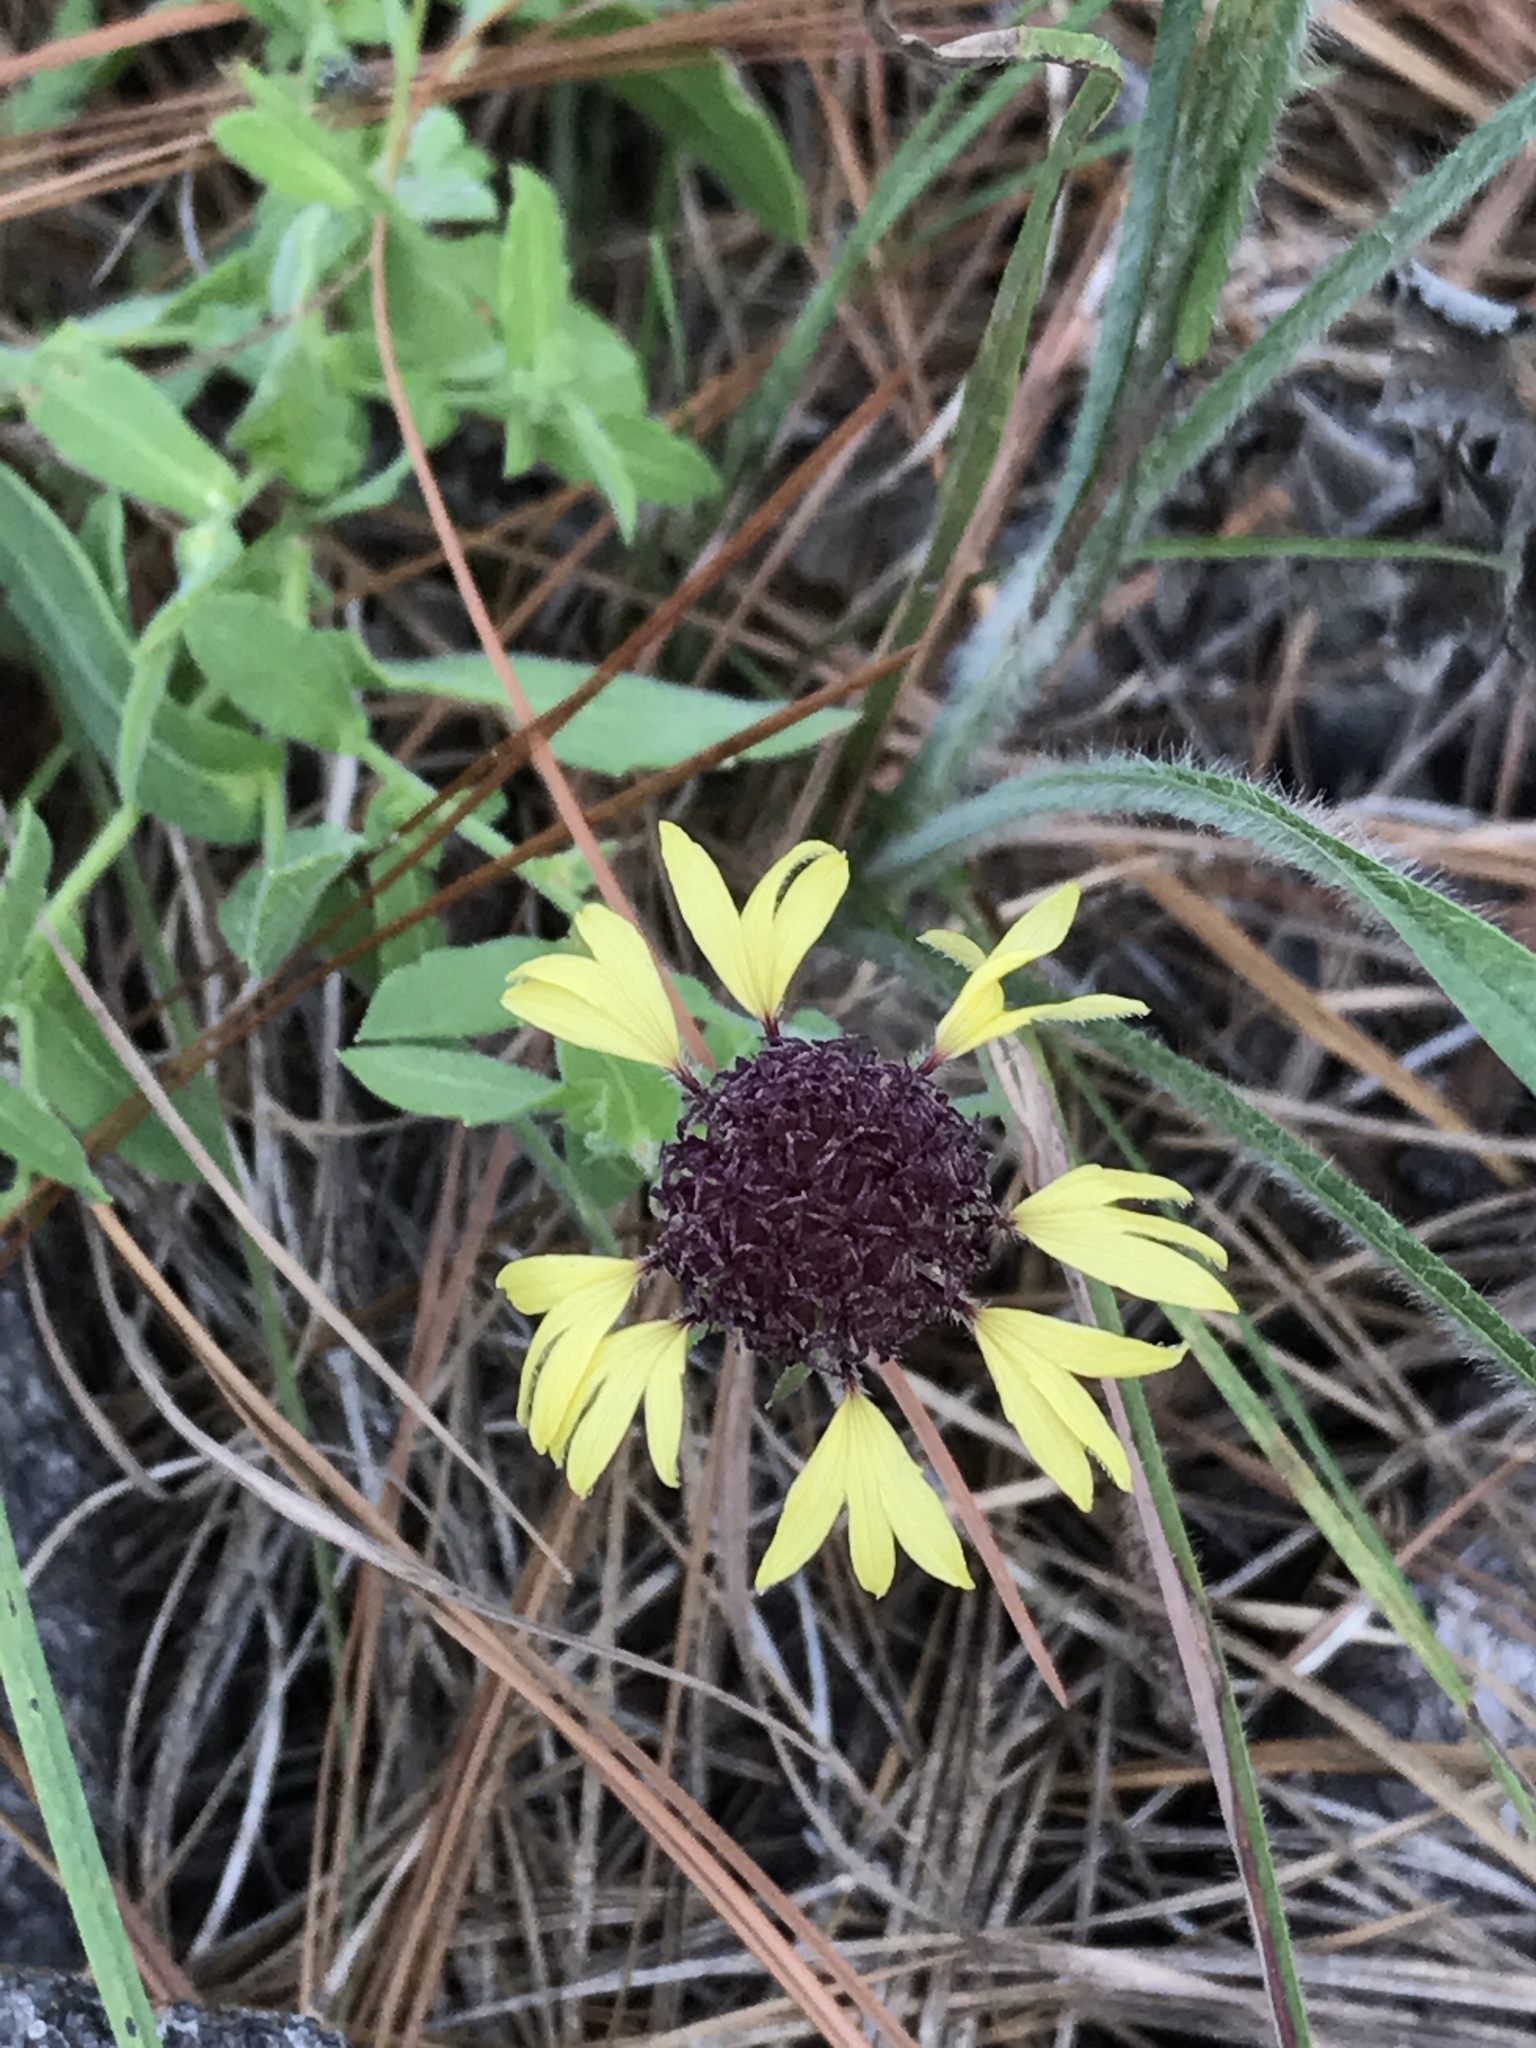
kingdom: Plantae
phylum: Tracheophyta
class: Magnoliopsida
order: Asterales
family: Asteraceae
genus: Gaillardia
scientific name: Gaillardia aestivalis
